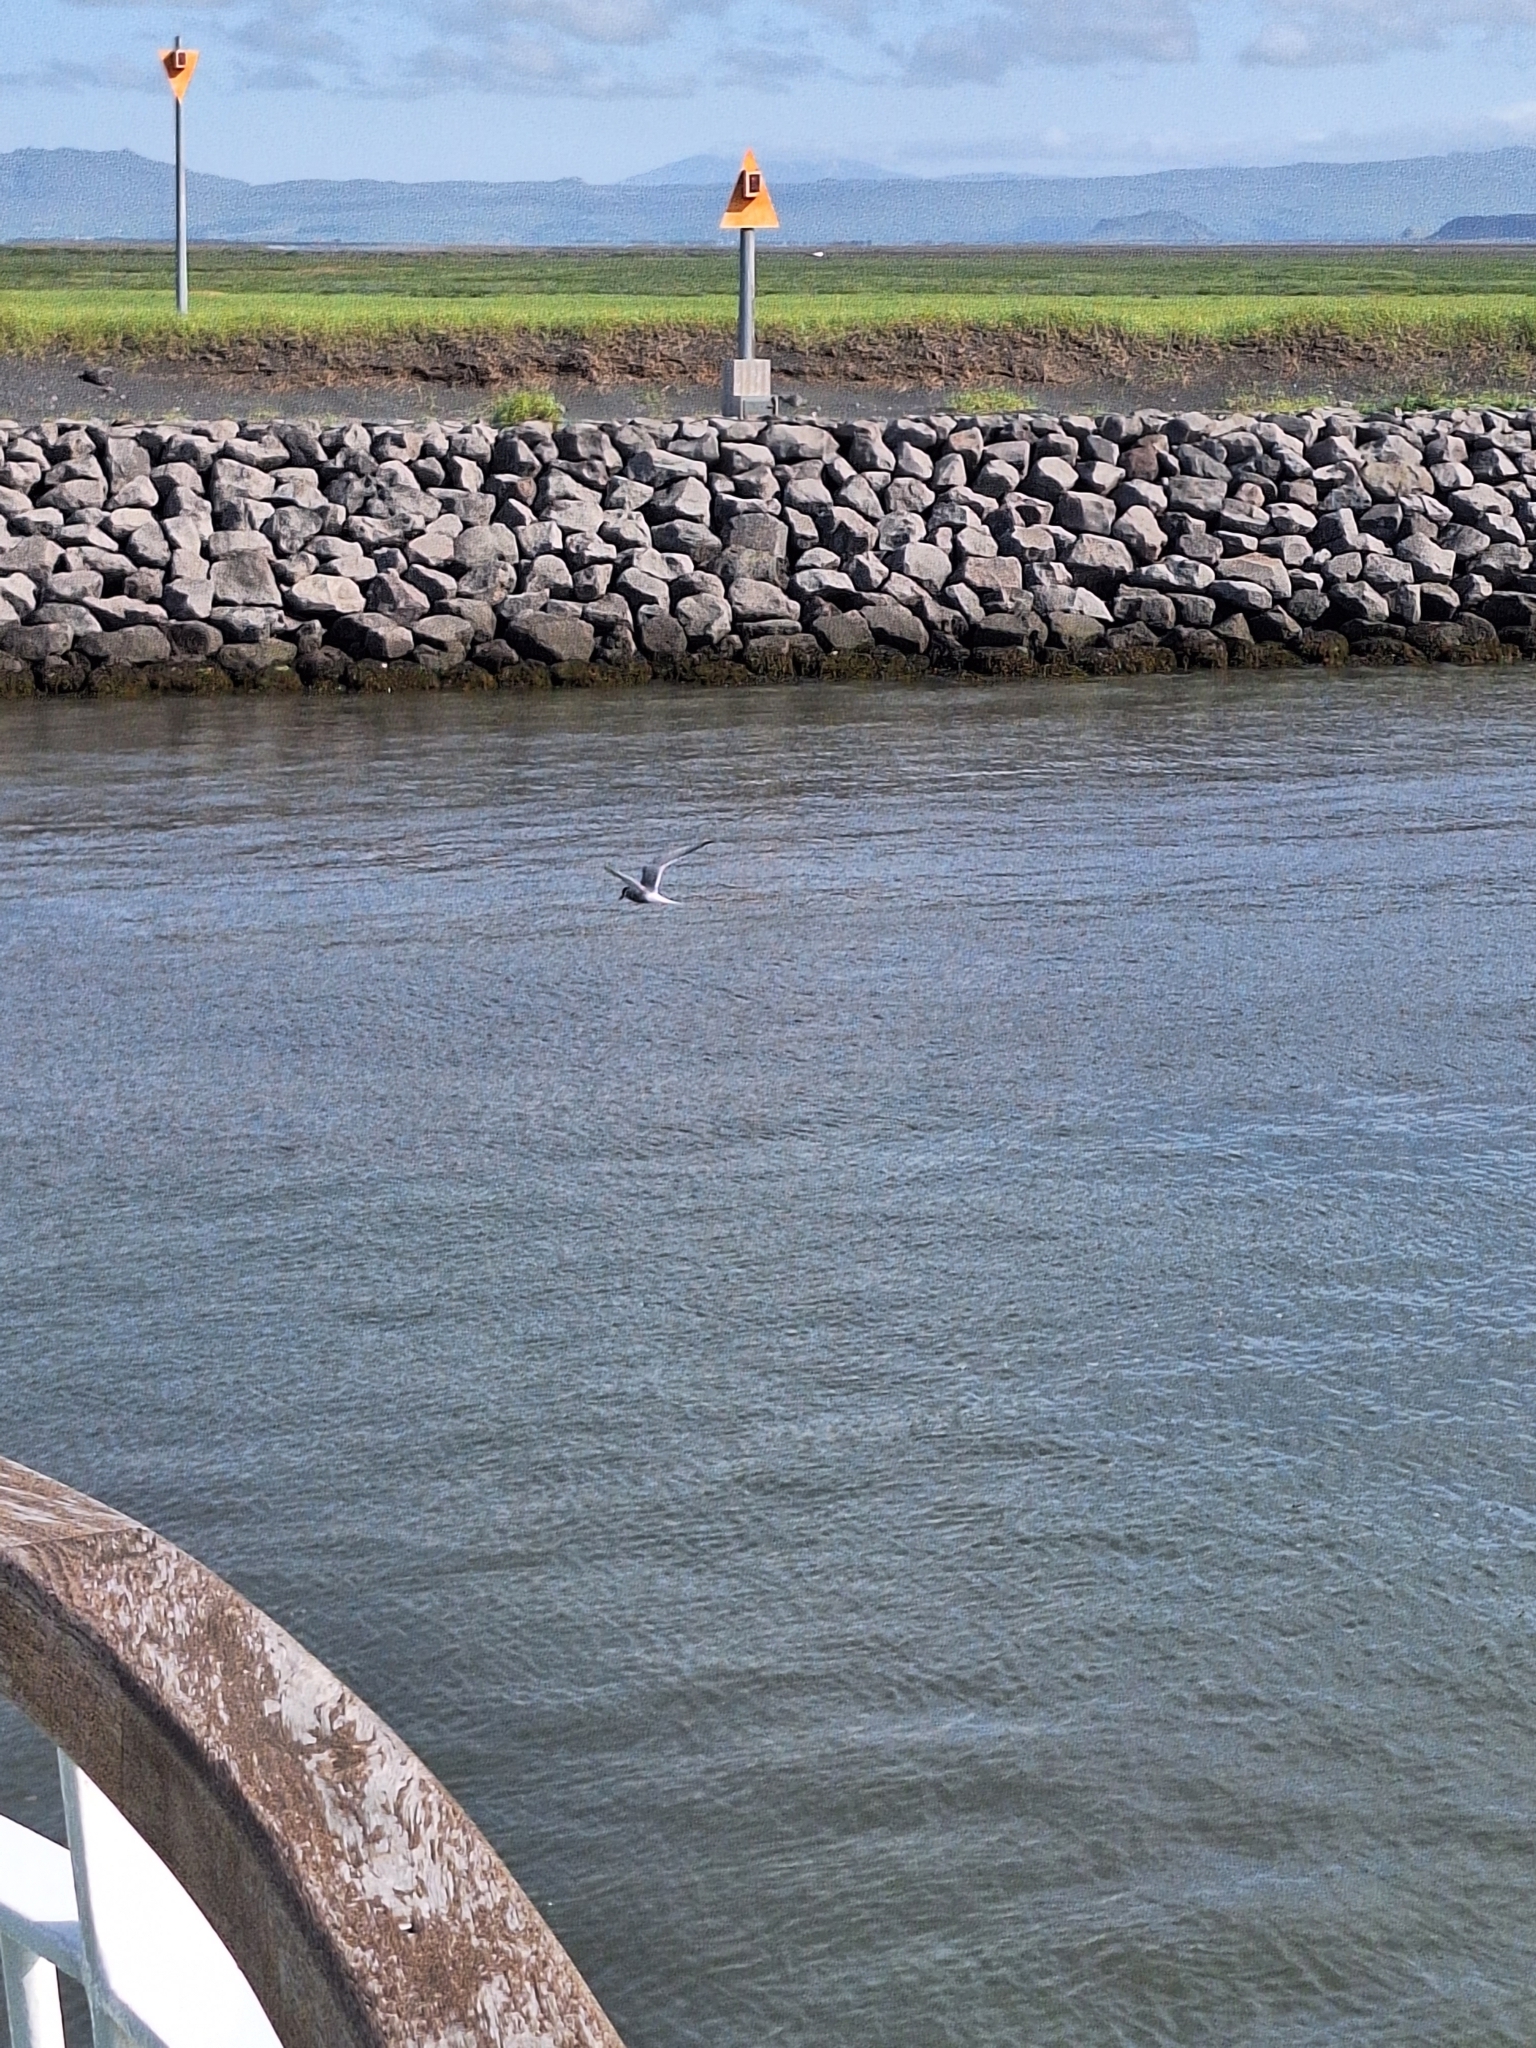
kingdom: Animalia
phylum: Chordata
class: Aves
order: Charadriiformes
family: Laridae
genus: Sterna
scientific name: Sterna paradisaea
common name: Arctic tern
